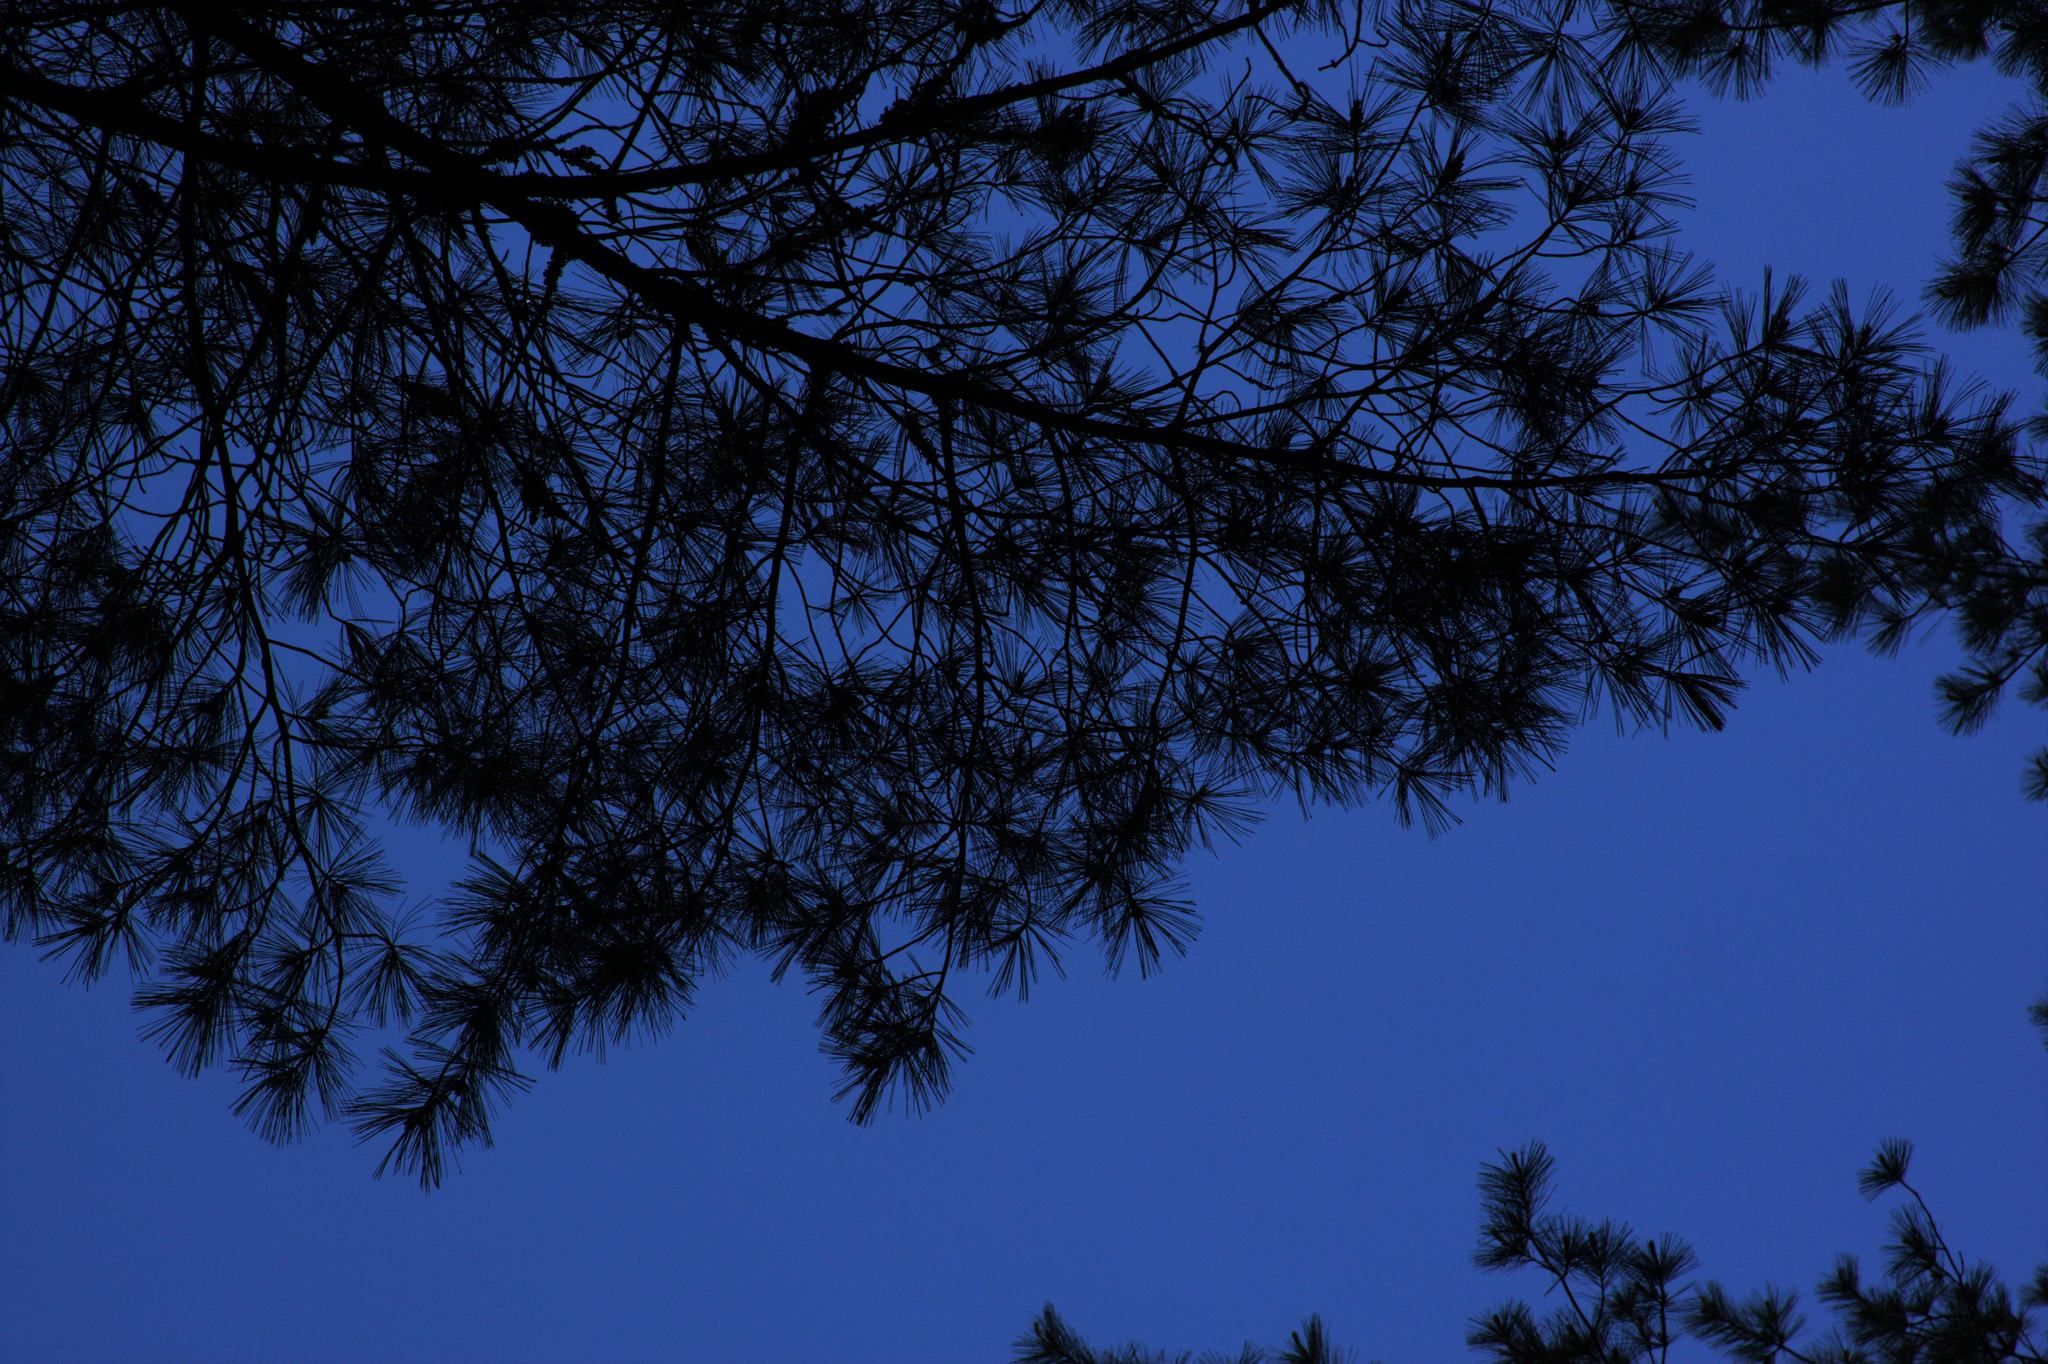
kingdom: Plantae
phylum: Tracheophyta
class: Pinopsida
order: Pinales
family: Pinaceae
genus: Pinus
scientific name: Pinus strobus
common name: Weymouth pine
